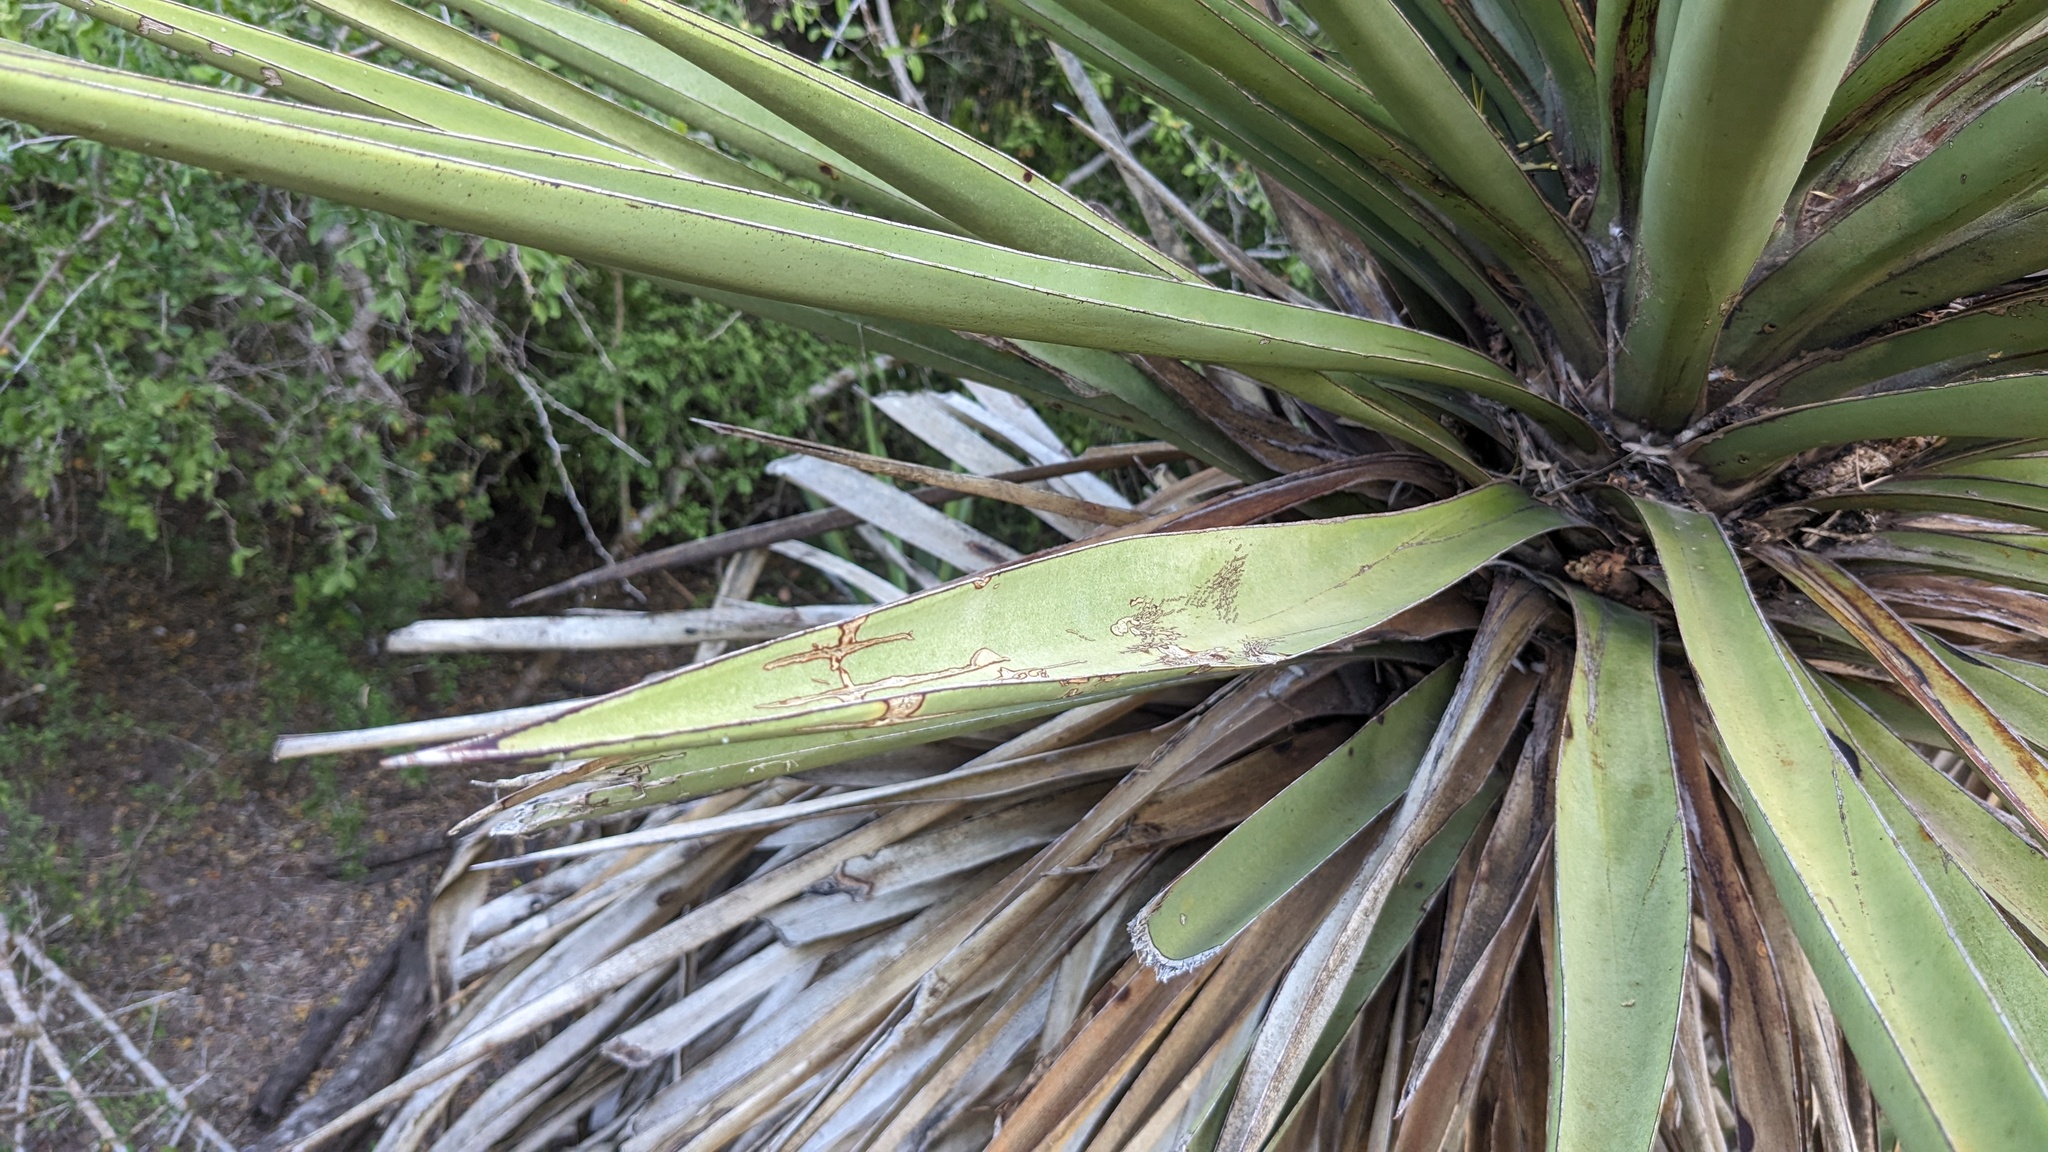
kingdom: Plantae
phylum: Tracheophyta
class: Liliopsida
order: Asparagales
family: Asparagaceae
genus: Yucca
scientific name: Yucca treculiana
